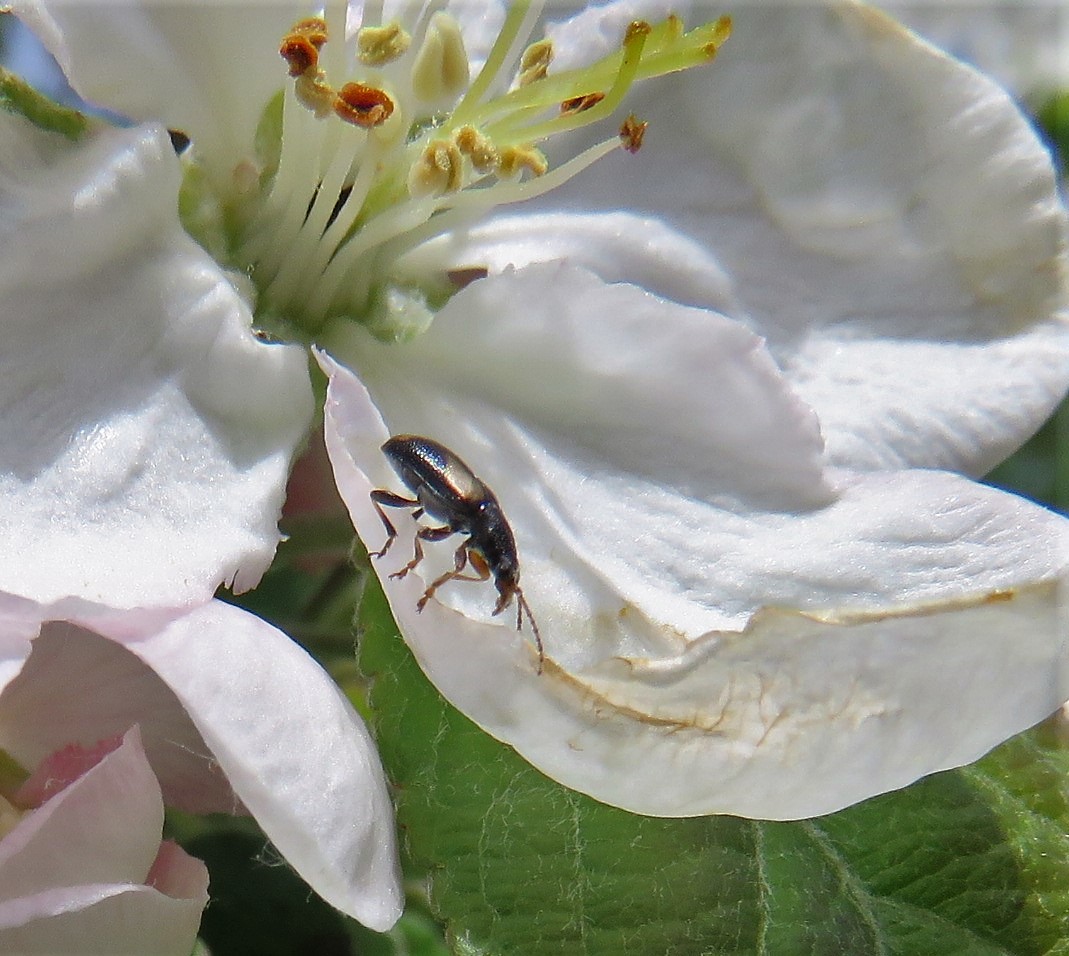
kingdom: Animalia
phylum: Arthropoda
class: Insecta
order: Coleoptera
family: Orsodacnidae
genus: Orsodacne
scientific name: Orsodacne atra
